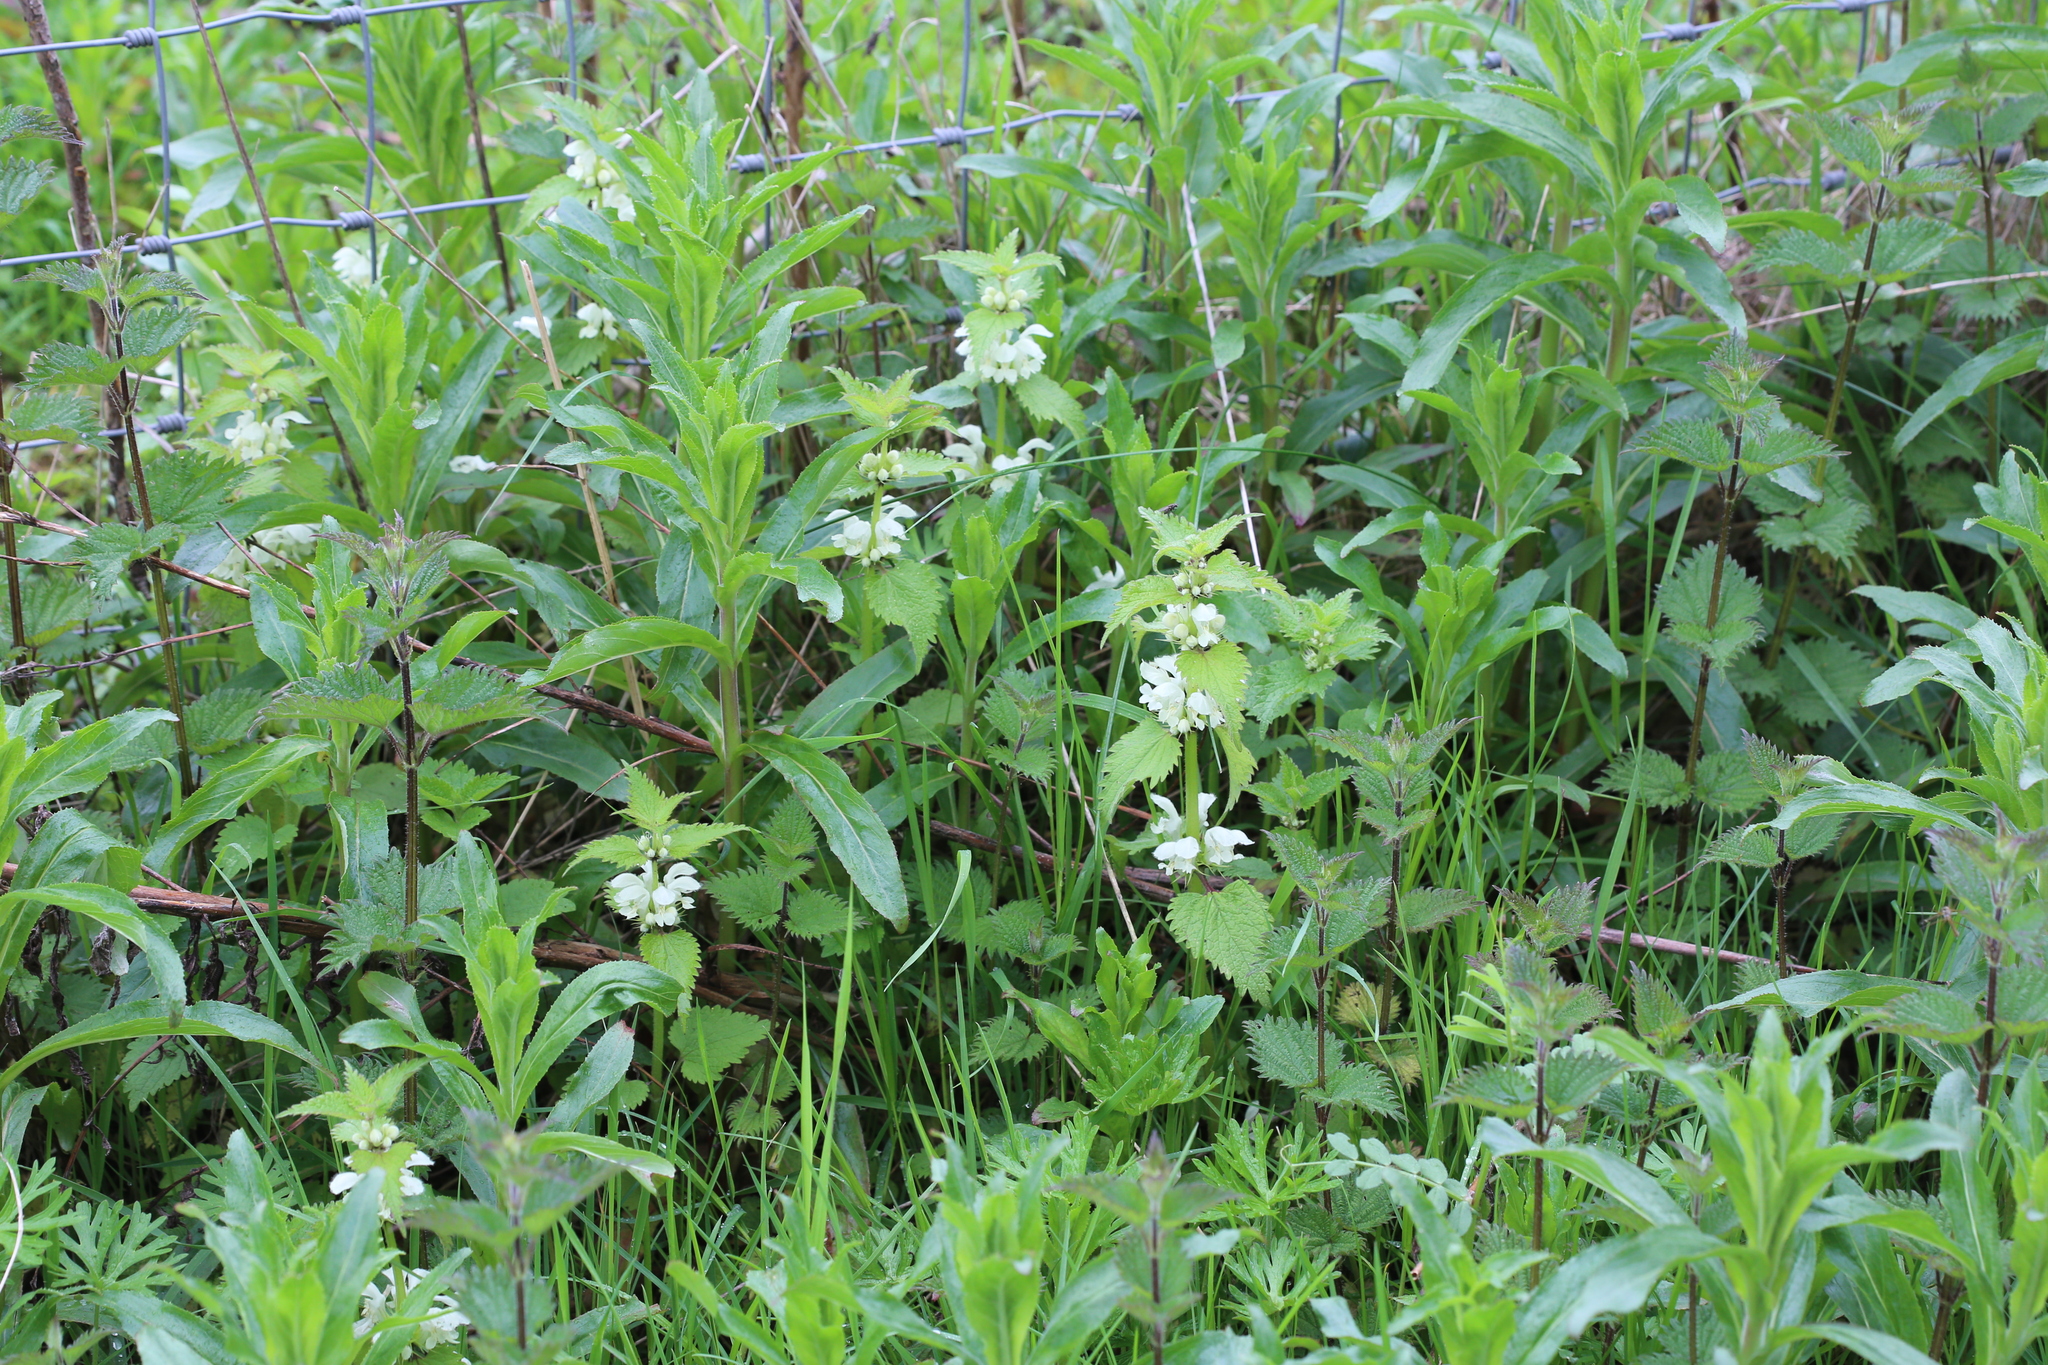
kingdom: Plantae
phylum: Tracheophyta
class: Magnoliopsida
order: Lamiales
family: Lamiaceae
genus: Lamium
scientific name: Lamium album
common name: White dead-nettle
